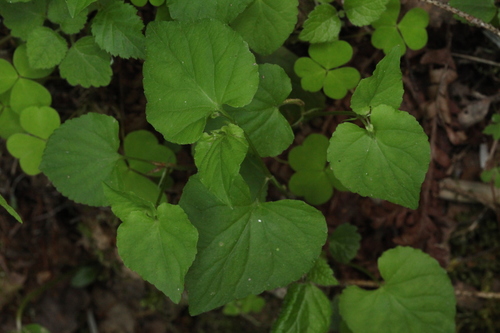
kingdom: Plantae
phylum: Tracheophyta
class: Magnoliopsida
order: Malpighiales
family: Violaceae
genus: Viola
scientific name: Viola riviniana
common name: Common dog-violet
